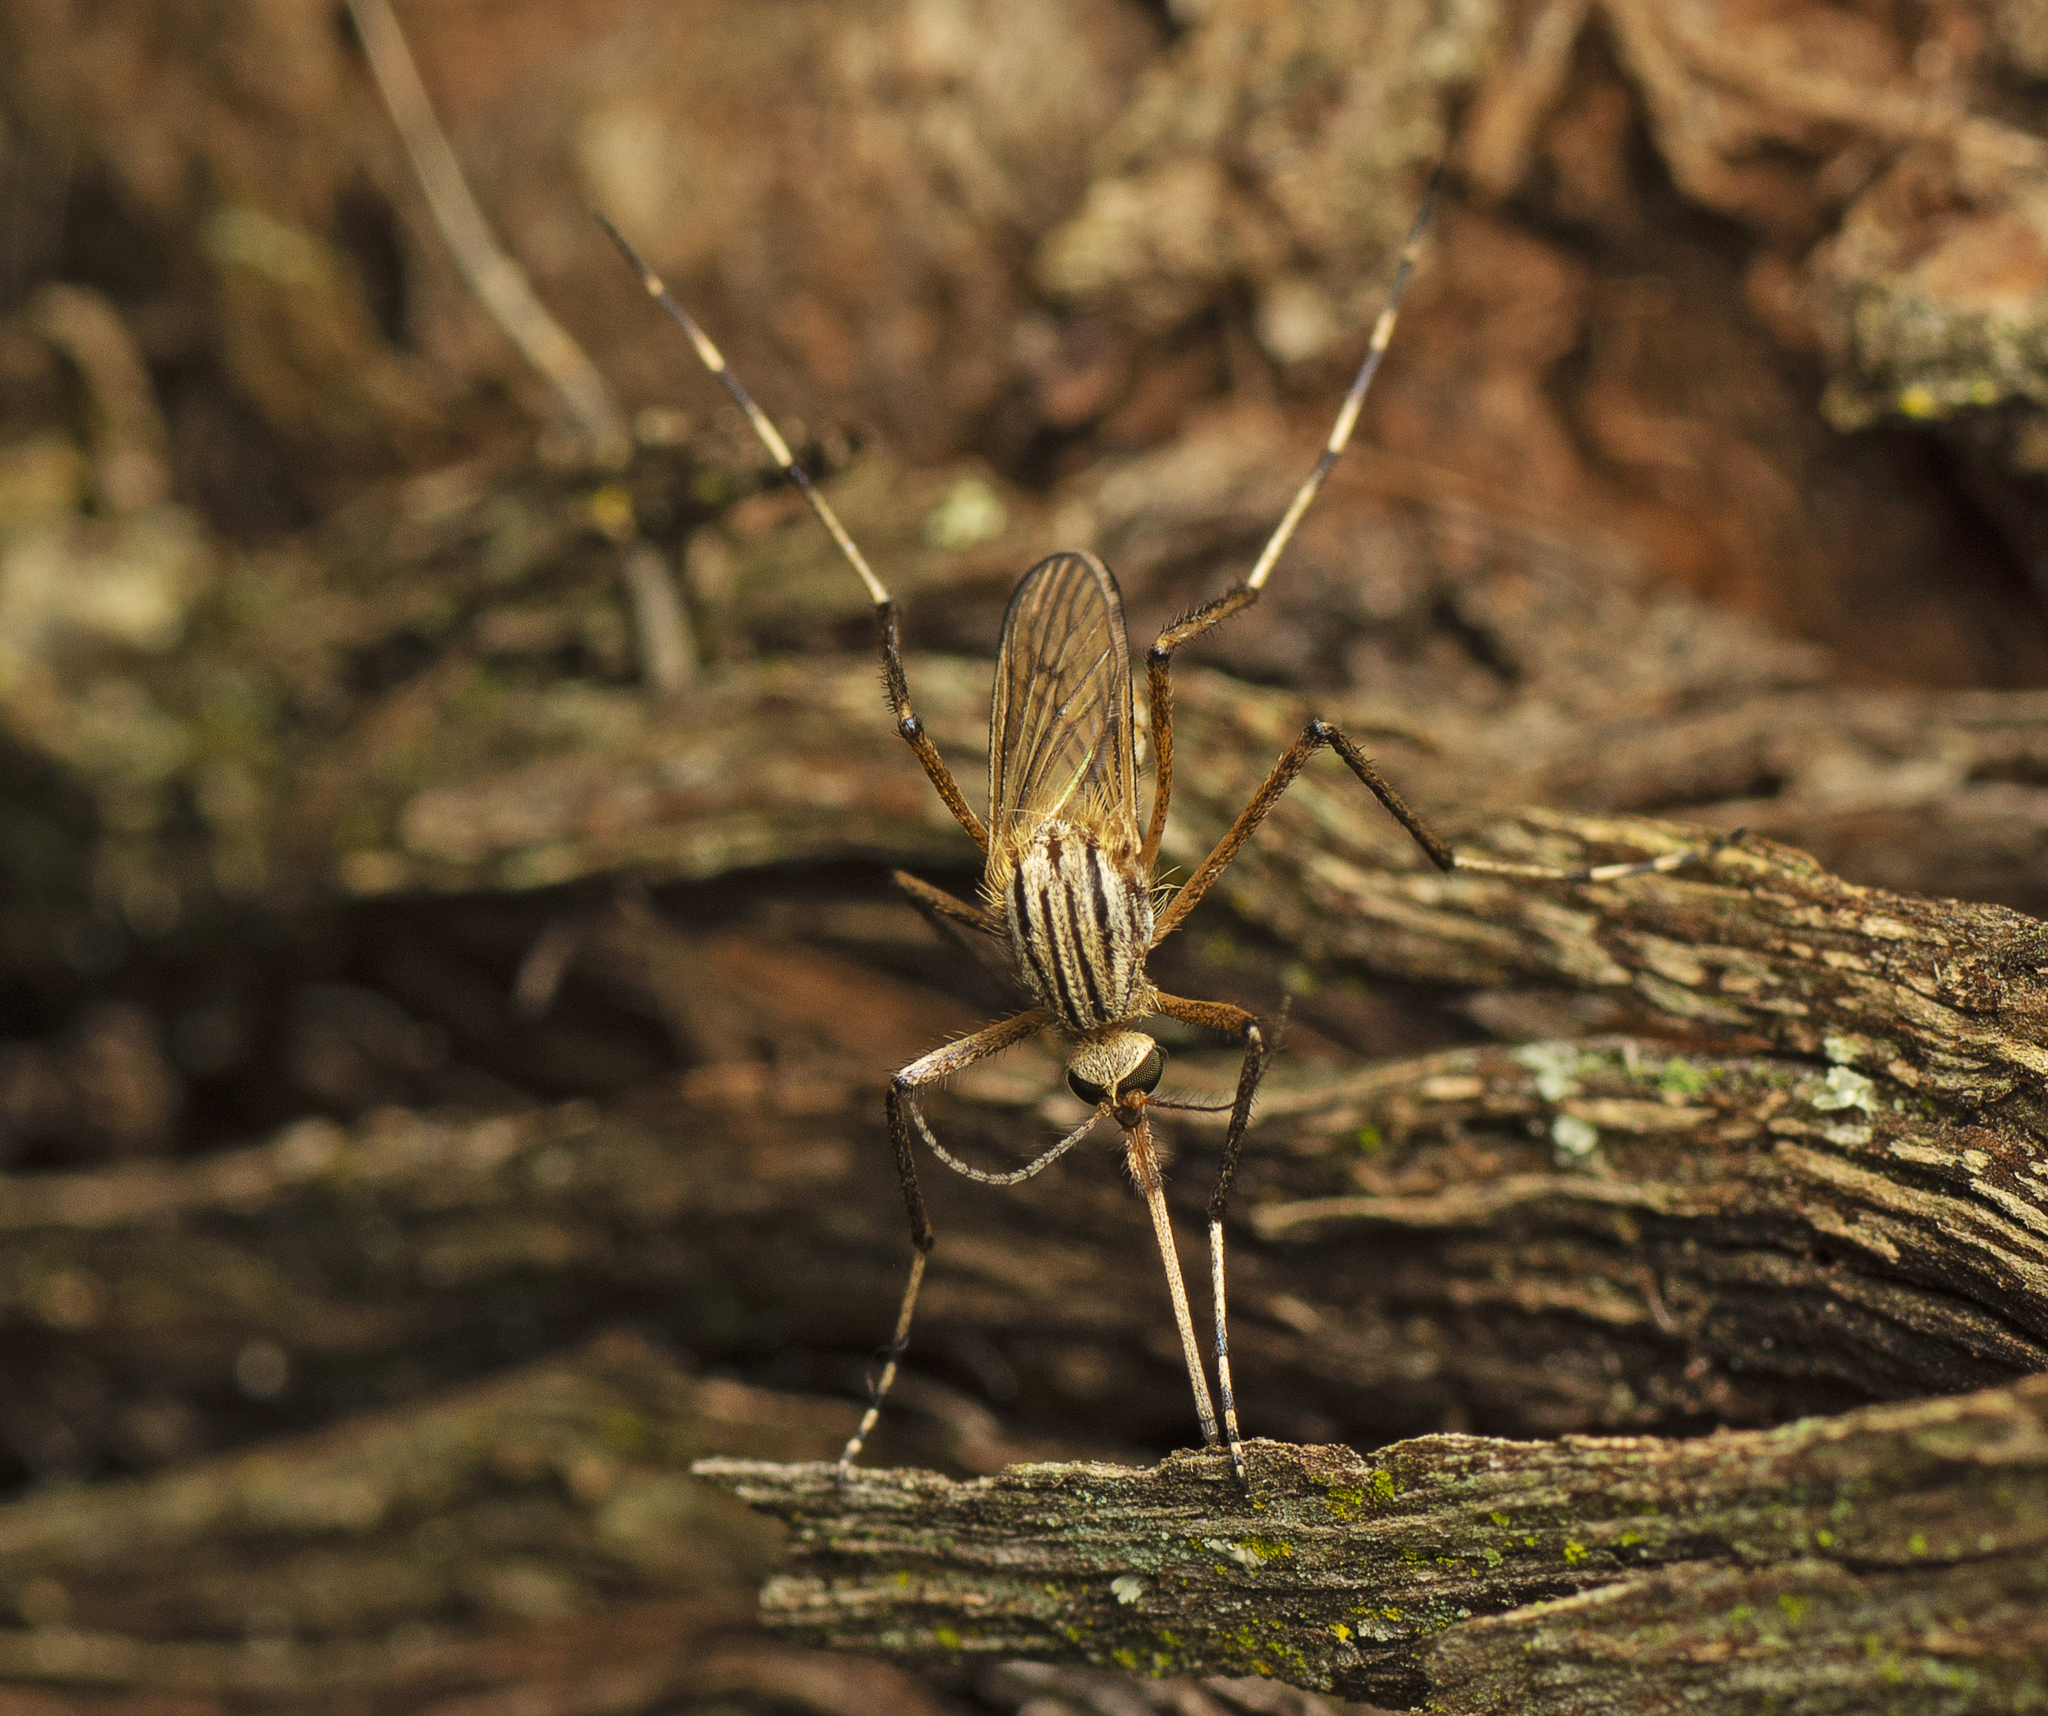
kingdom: Animalia
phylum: Arthropoda
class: Insecta
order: Diptera
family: Culicidae
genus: Aedes
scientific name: Aedes vittiger
